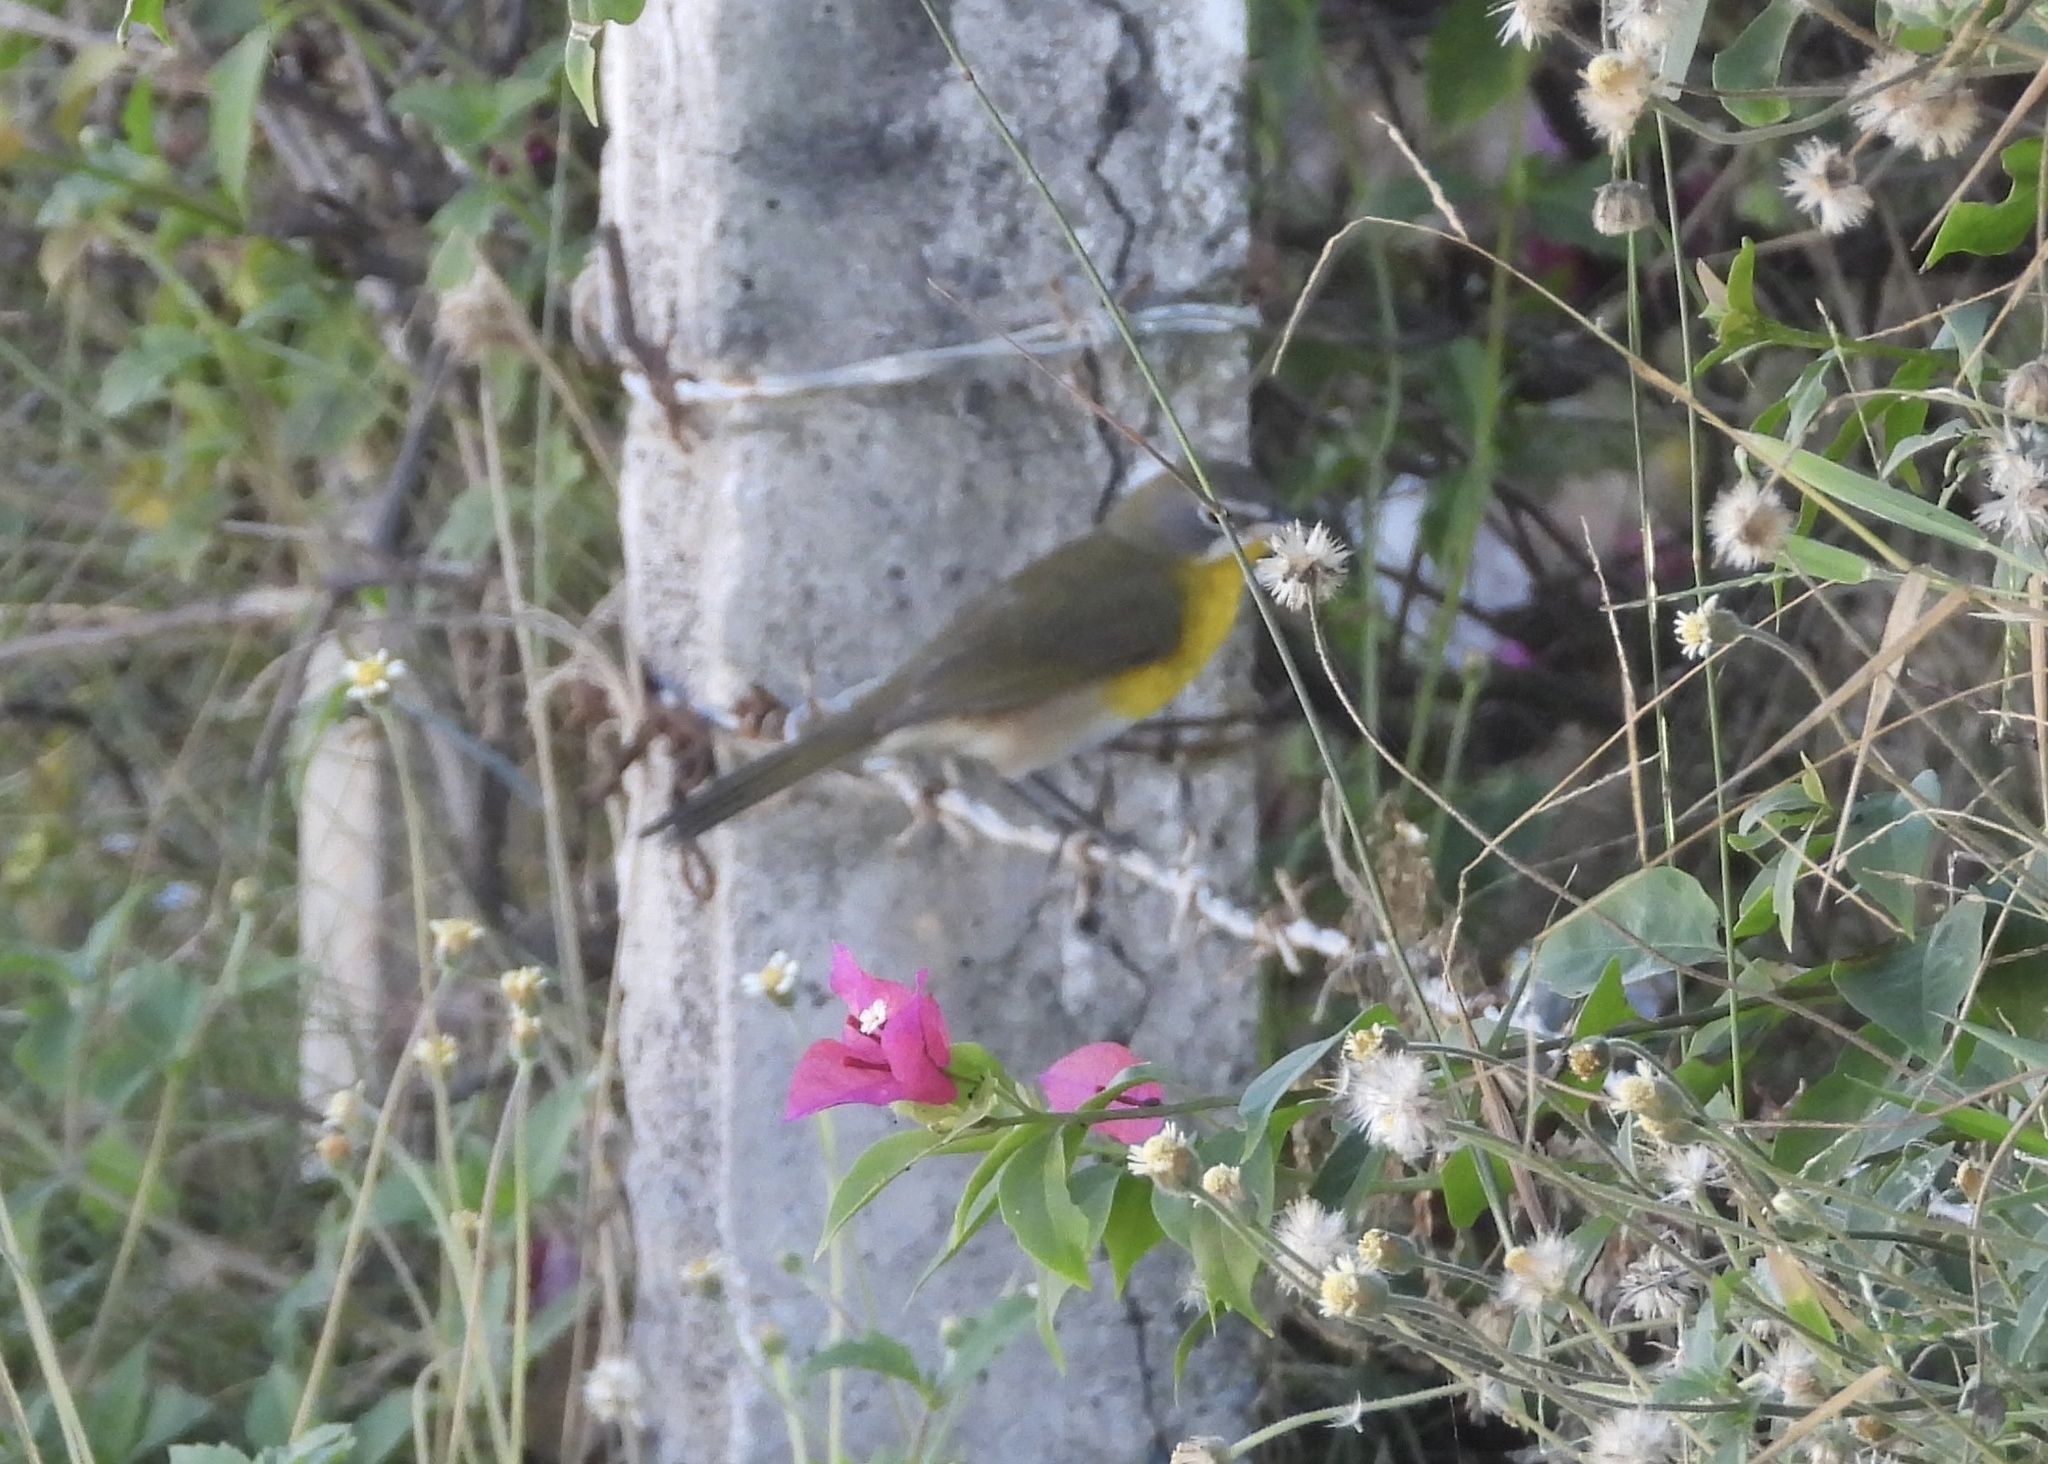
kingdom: Animalia
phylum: Chordata
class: Aves
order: Passeriformes
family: Parulidae
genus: Icteria
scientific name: Icteria virens
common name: Yellow-breasted chat
